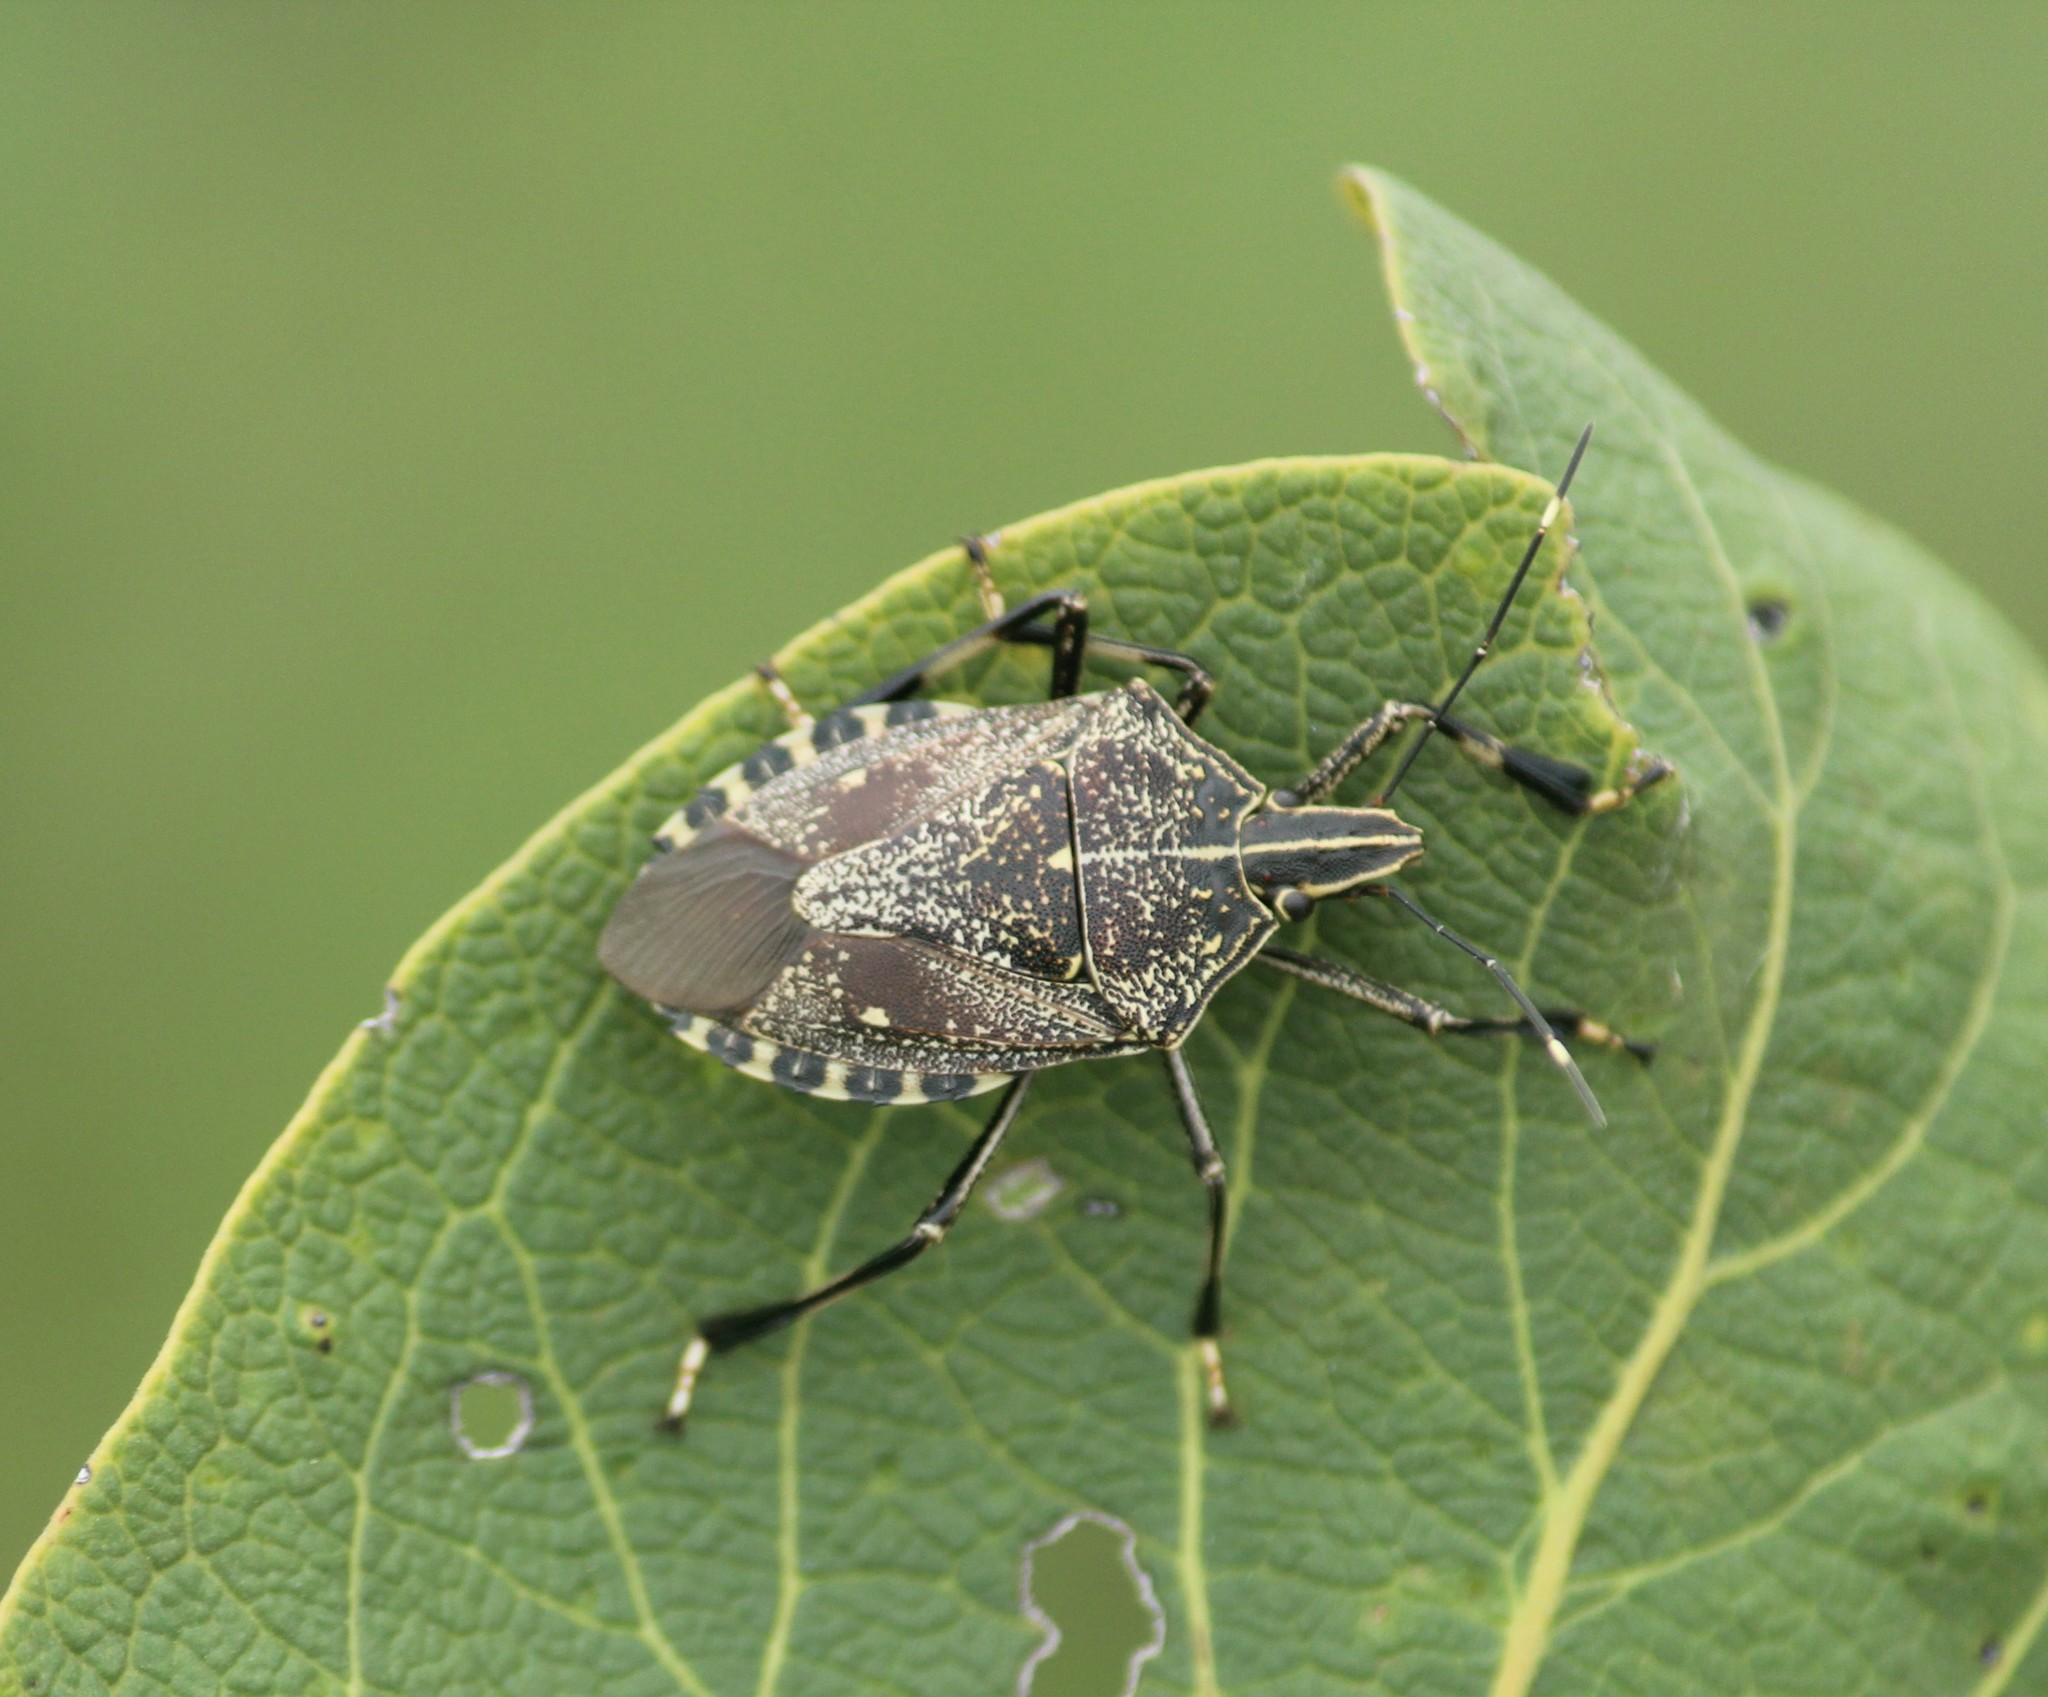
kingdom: Animalia
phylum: Arthropoda
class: Insecta
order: Hemiptera
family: Pentatomidae
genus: Erthesina
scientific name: Erthesina acuminata
